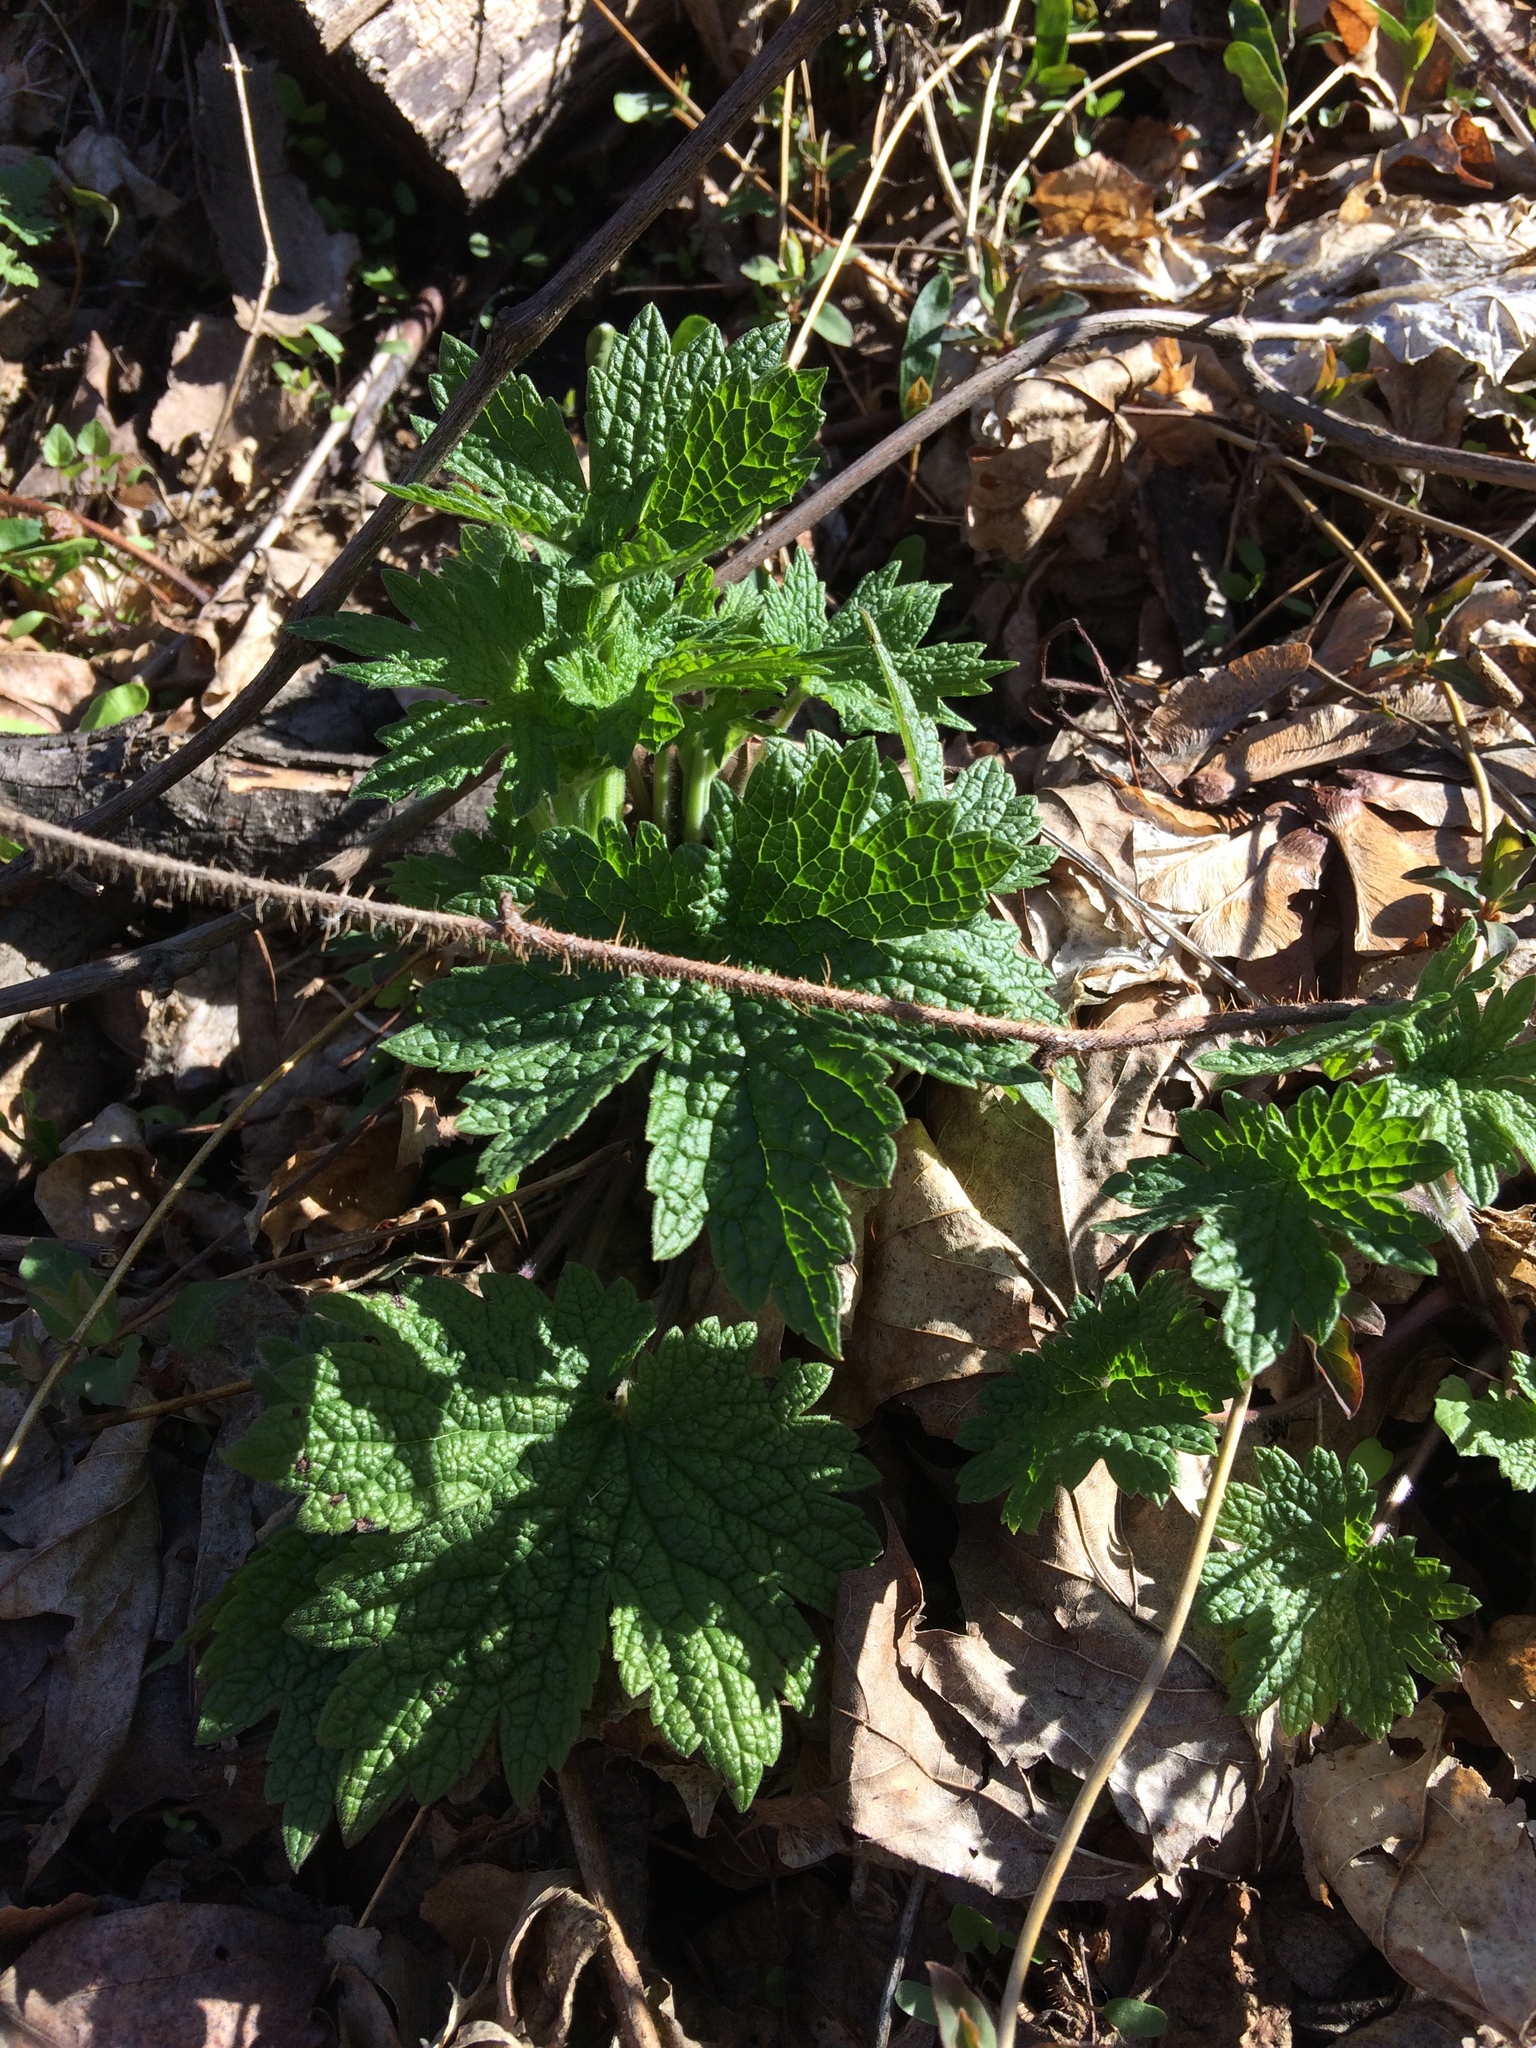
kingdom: Plantae
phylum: Tracheophyta
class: Magnoliopsida
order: Lamiales
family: Lamiaceae
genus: Leonurus
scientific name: Leonurus cardiaca
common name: Motherwort
